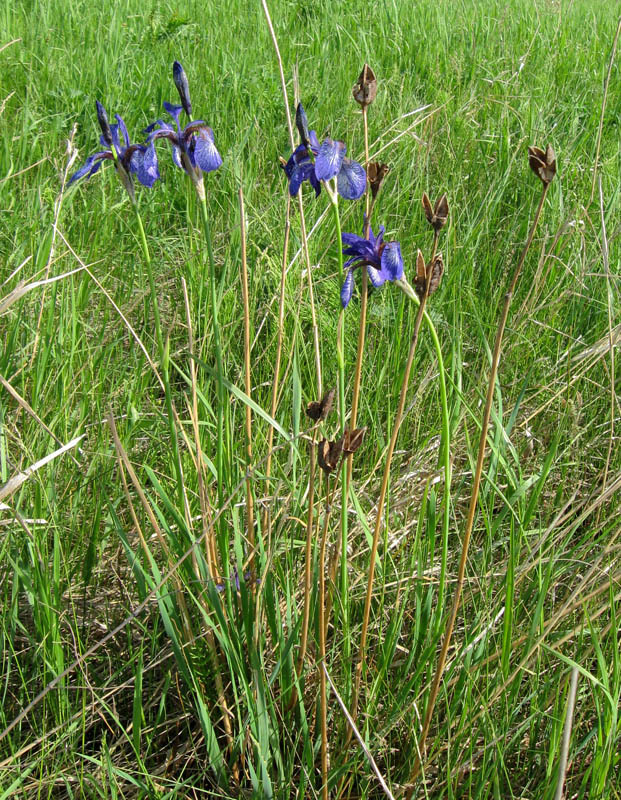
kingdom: Plantae
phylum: Tracheophyta
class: Liliopsida
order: Asparagales
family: Iridaceae
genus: Iris
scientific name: Iris sibirica
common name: Siberian iris
